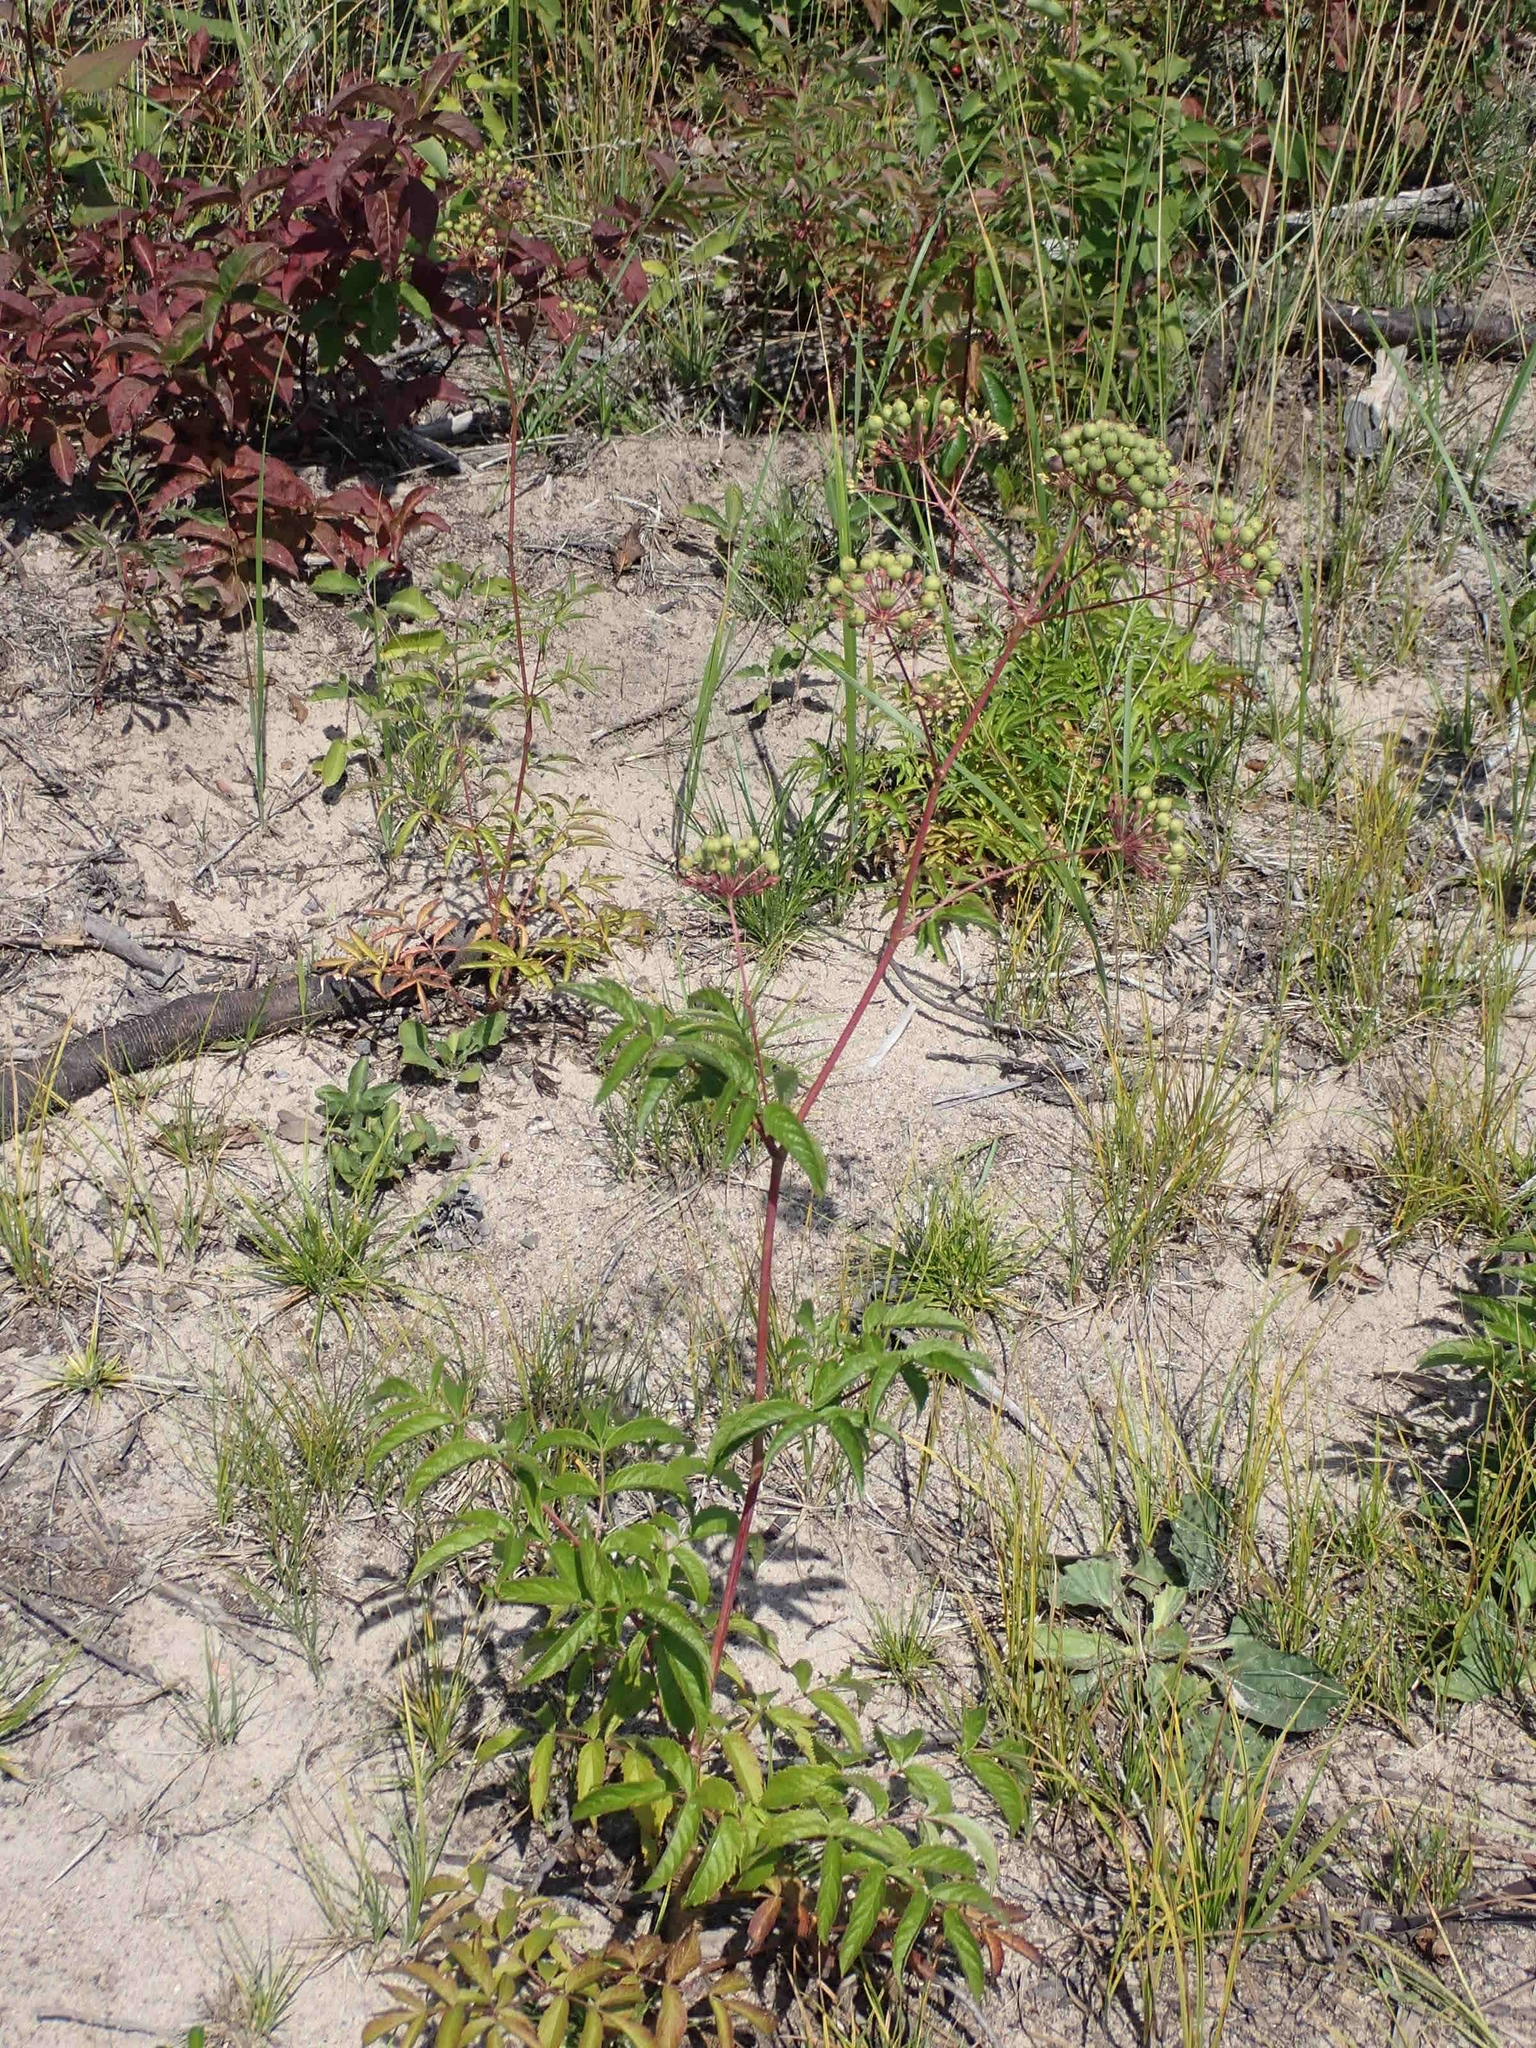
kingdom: Plantae
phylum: Tracheophyta
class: Magnoliopsida
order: Apiales
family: Araliaceae
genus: Aralia
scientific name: Aralia hispida
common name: Bristly sarsaparilla
